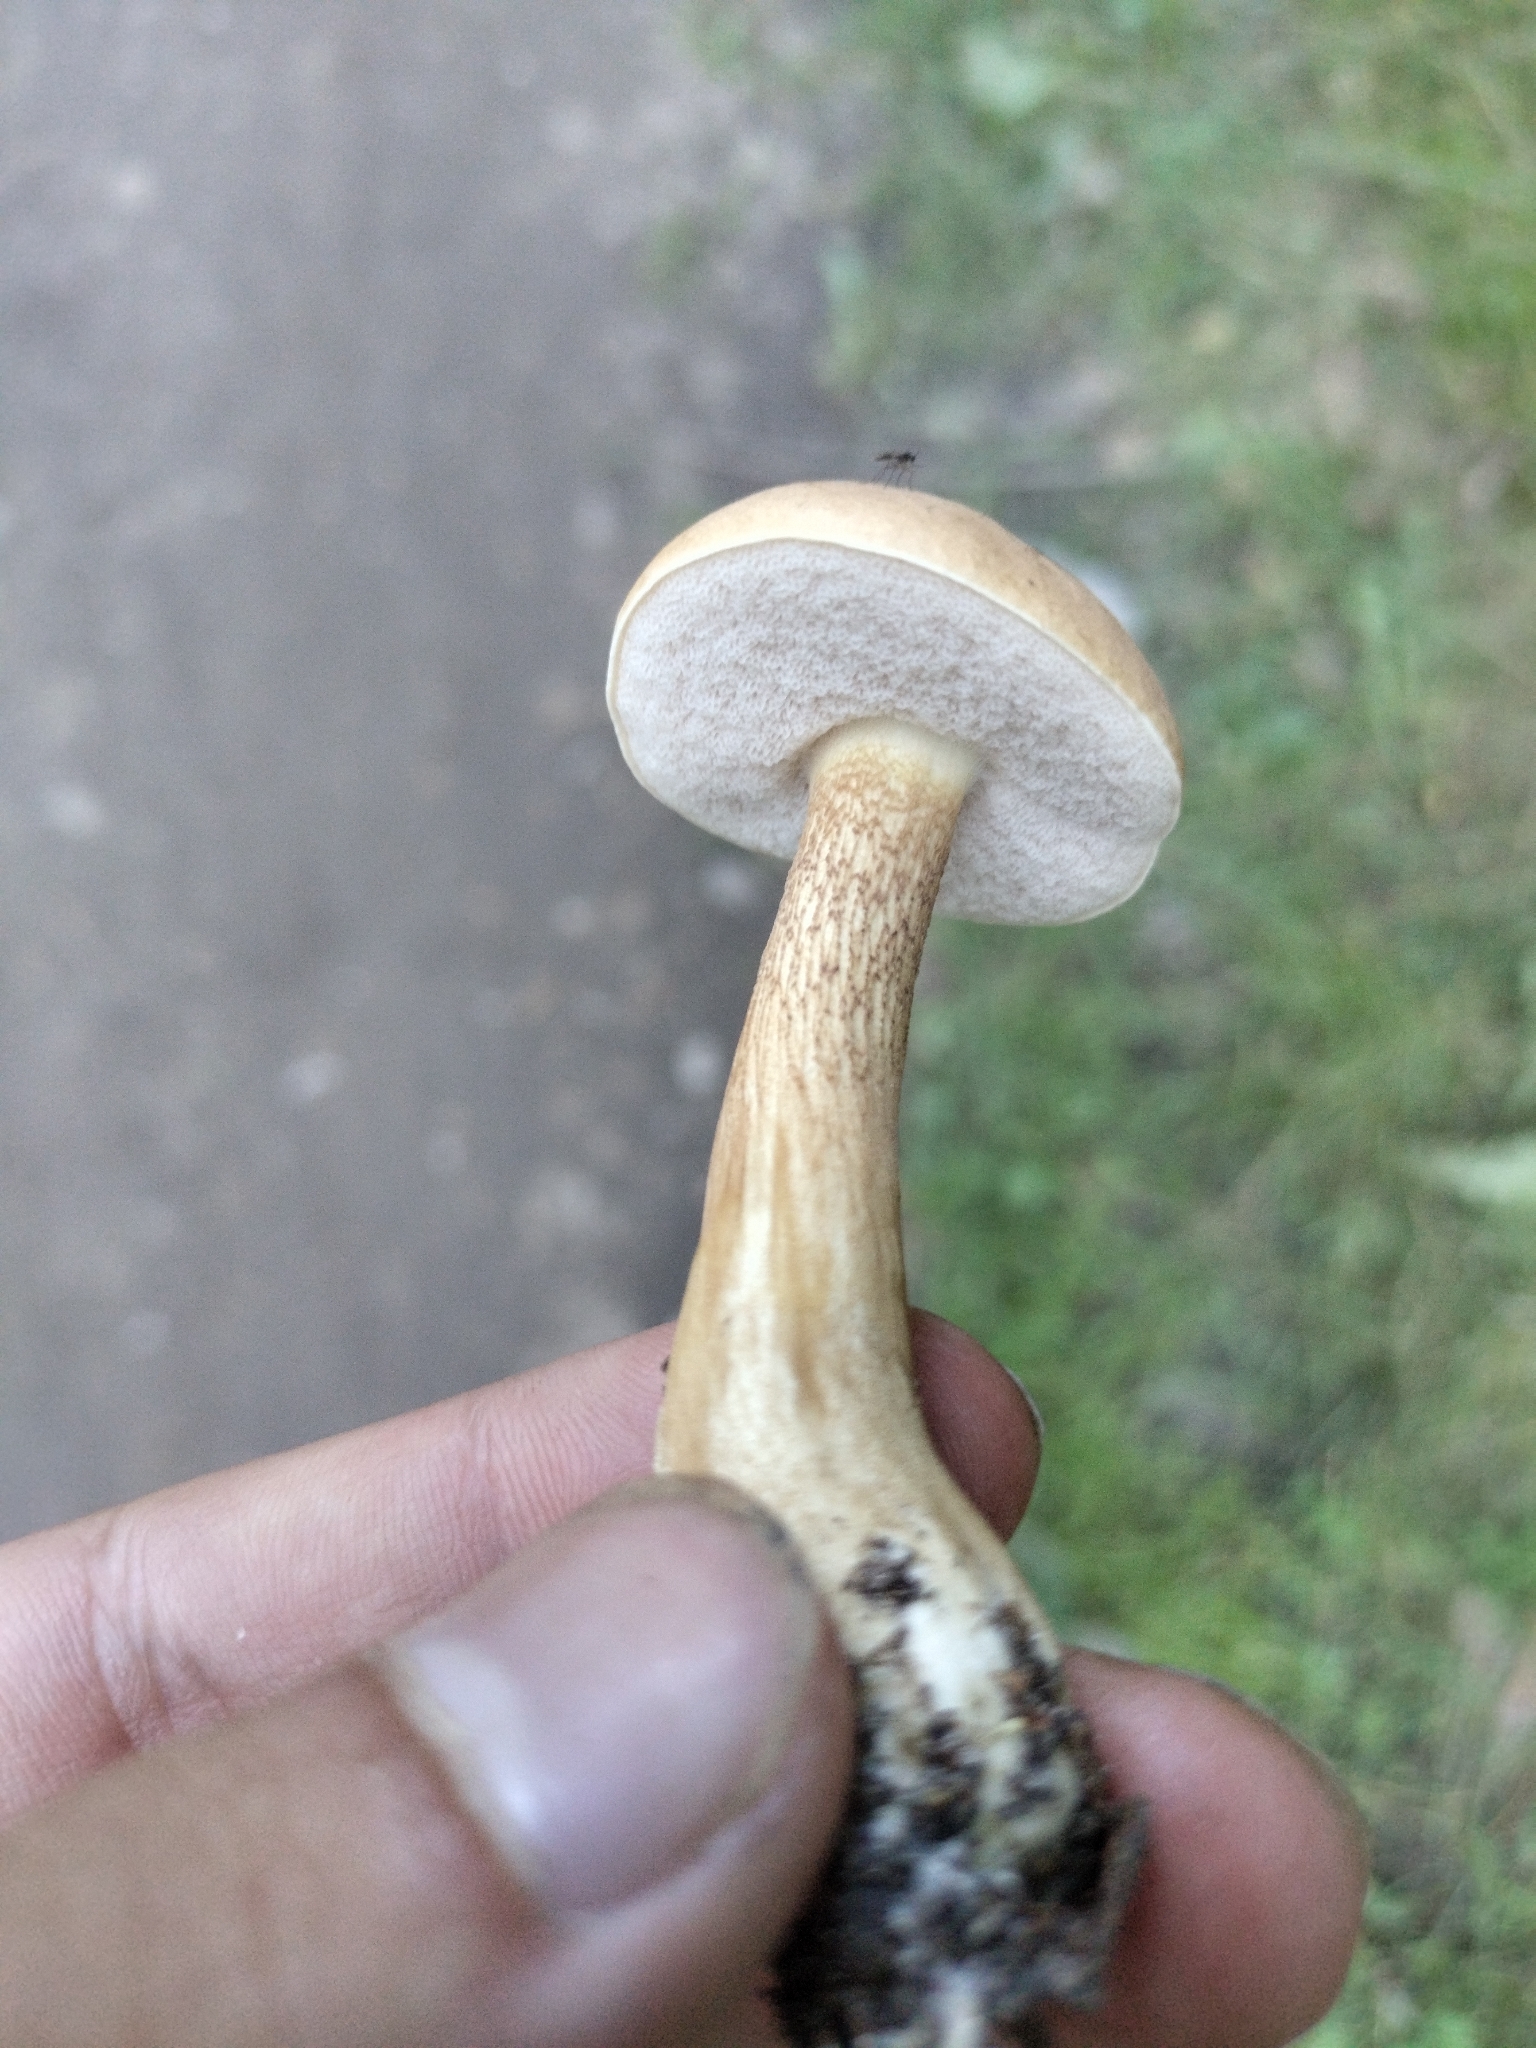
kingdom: Fungi
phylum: Basidiomycota
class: Agaricomycetes
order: Boletales
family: Boletaceae
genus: Tylopilus
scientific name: Tylopilus felleus
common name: Bitter bolete
